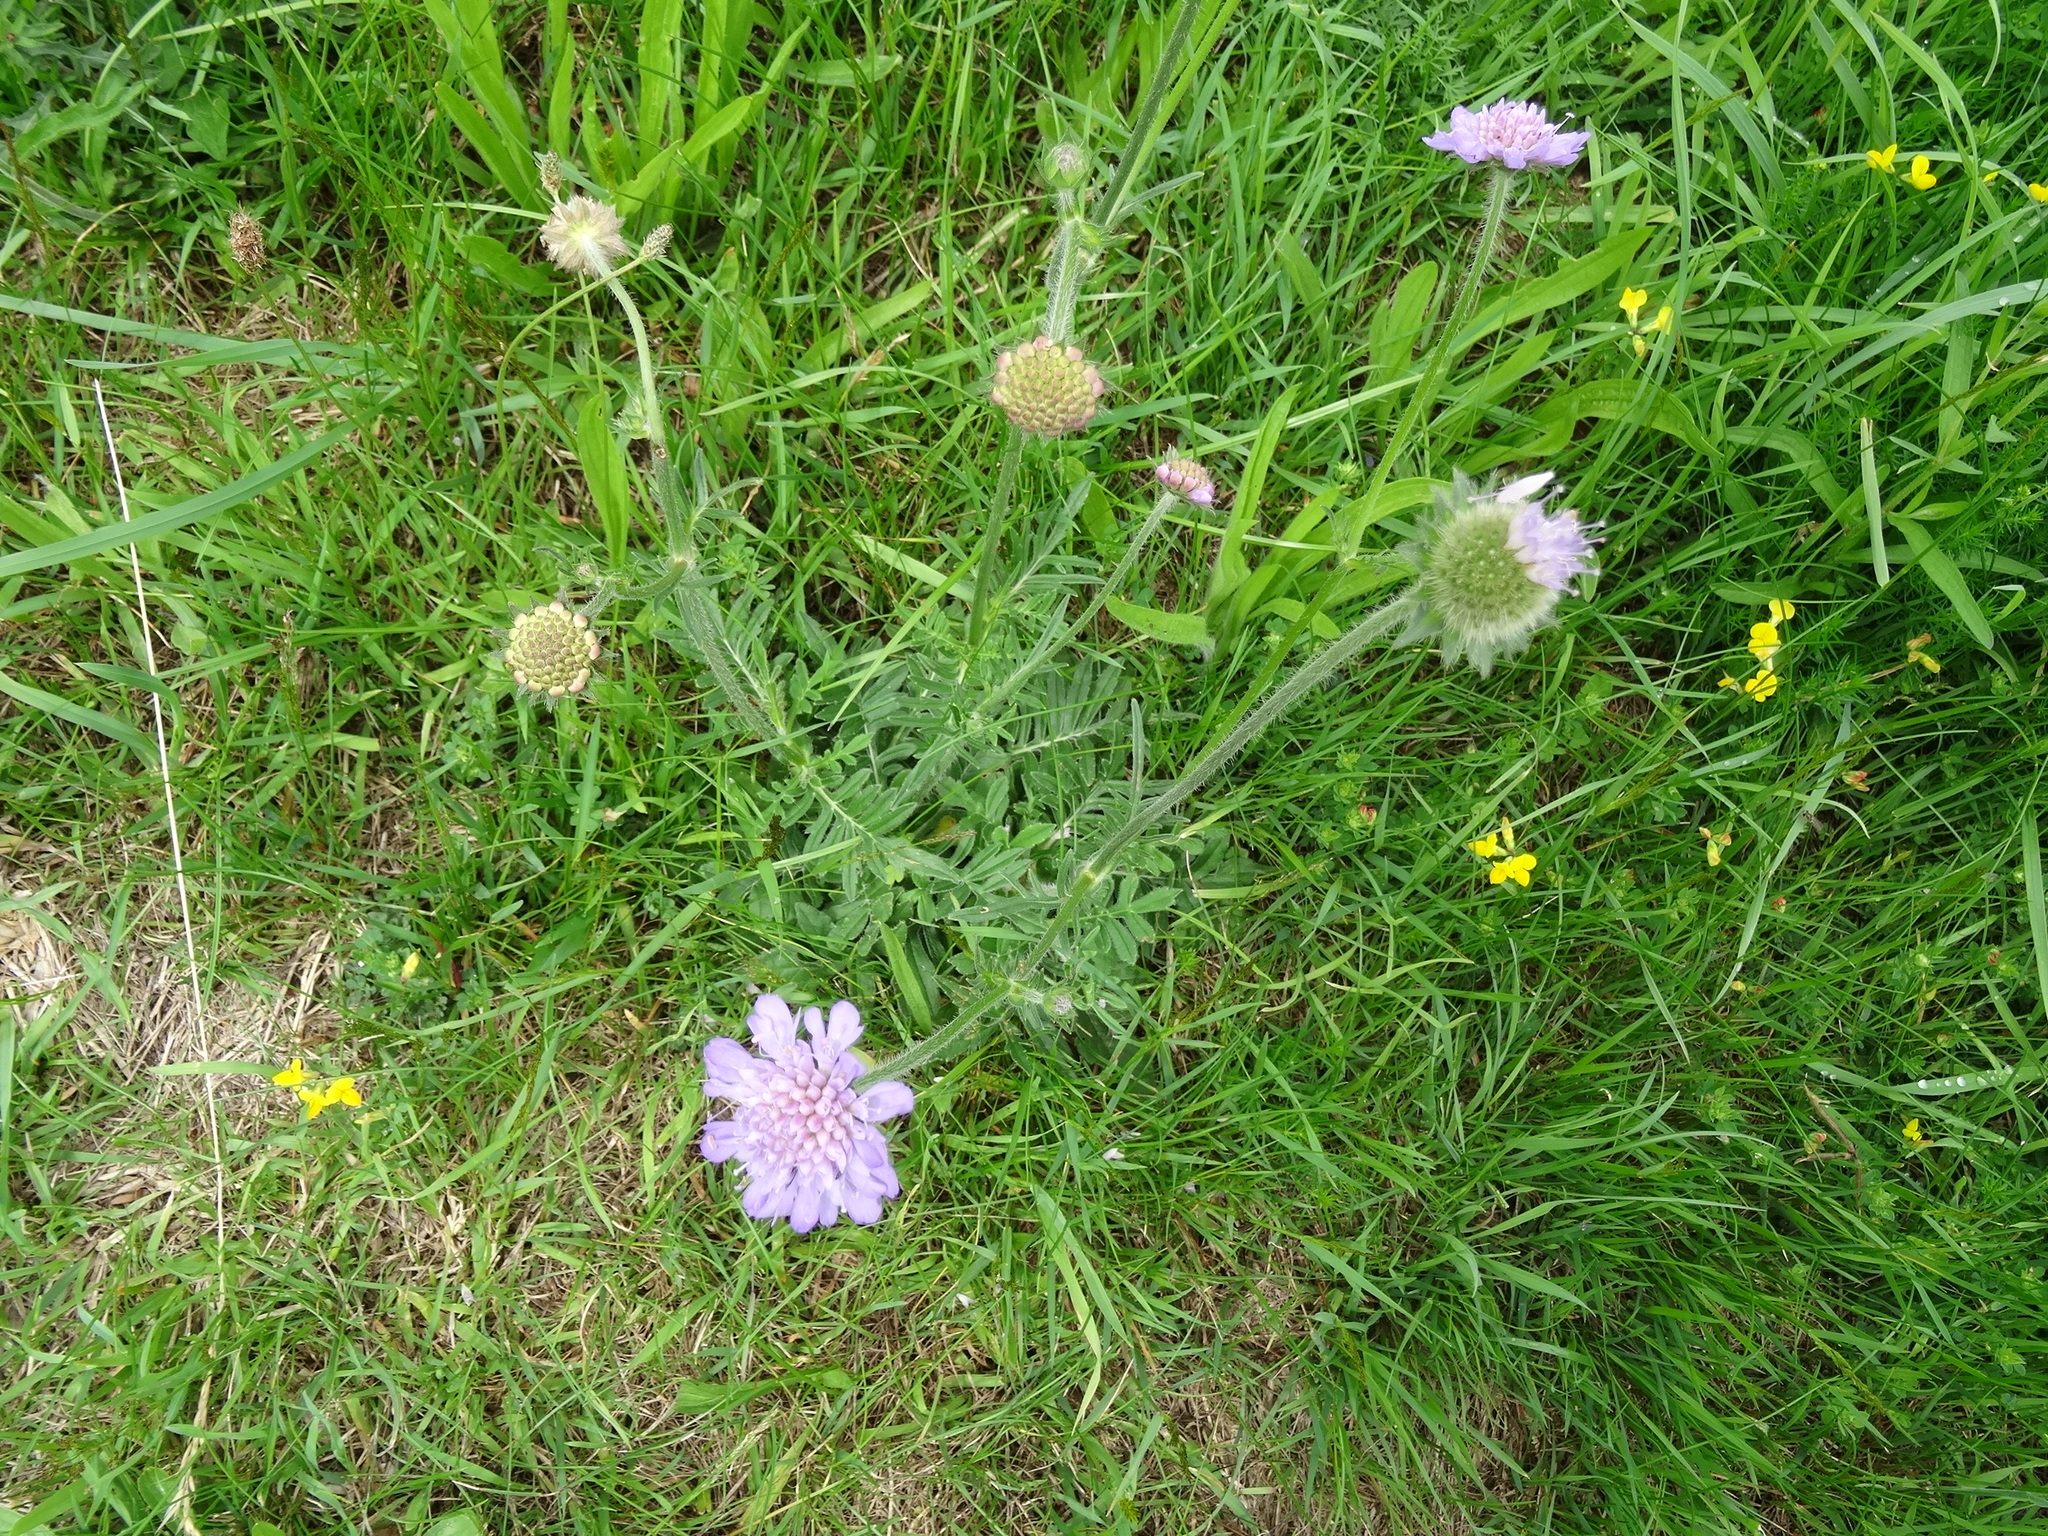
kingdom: Plantae
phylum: Tracheophyta
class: Magnoliopsida
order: Dipsacales
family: Caprifoliaceae
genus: Knautia
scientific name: Knautia arvensis
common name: Field scabiosa
